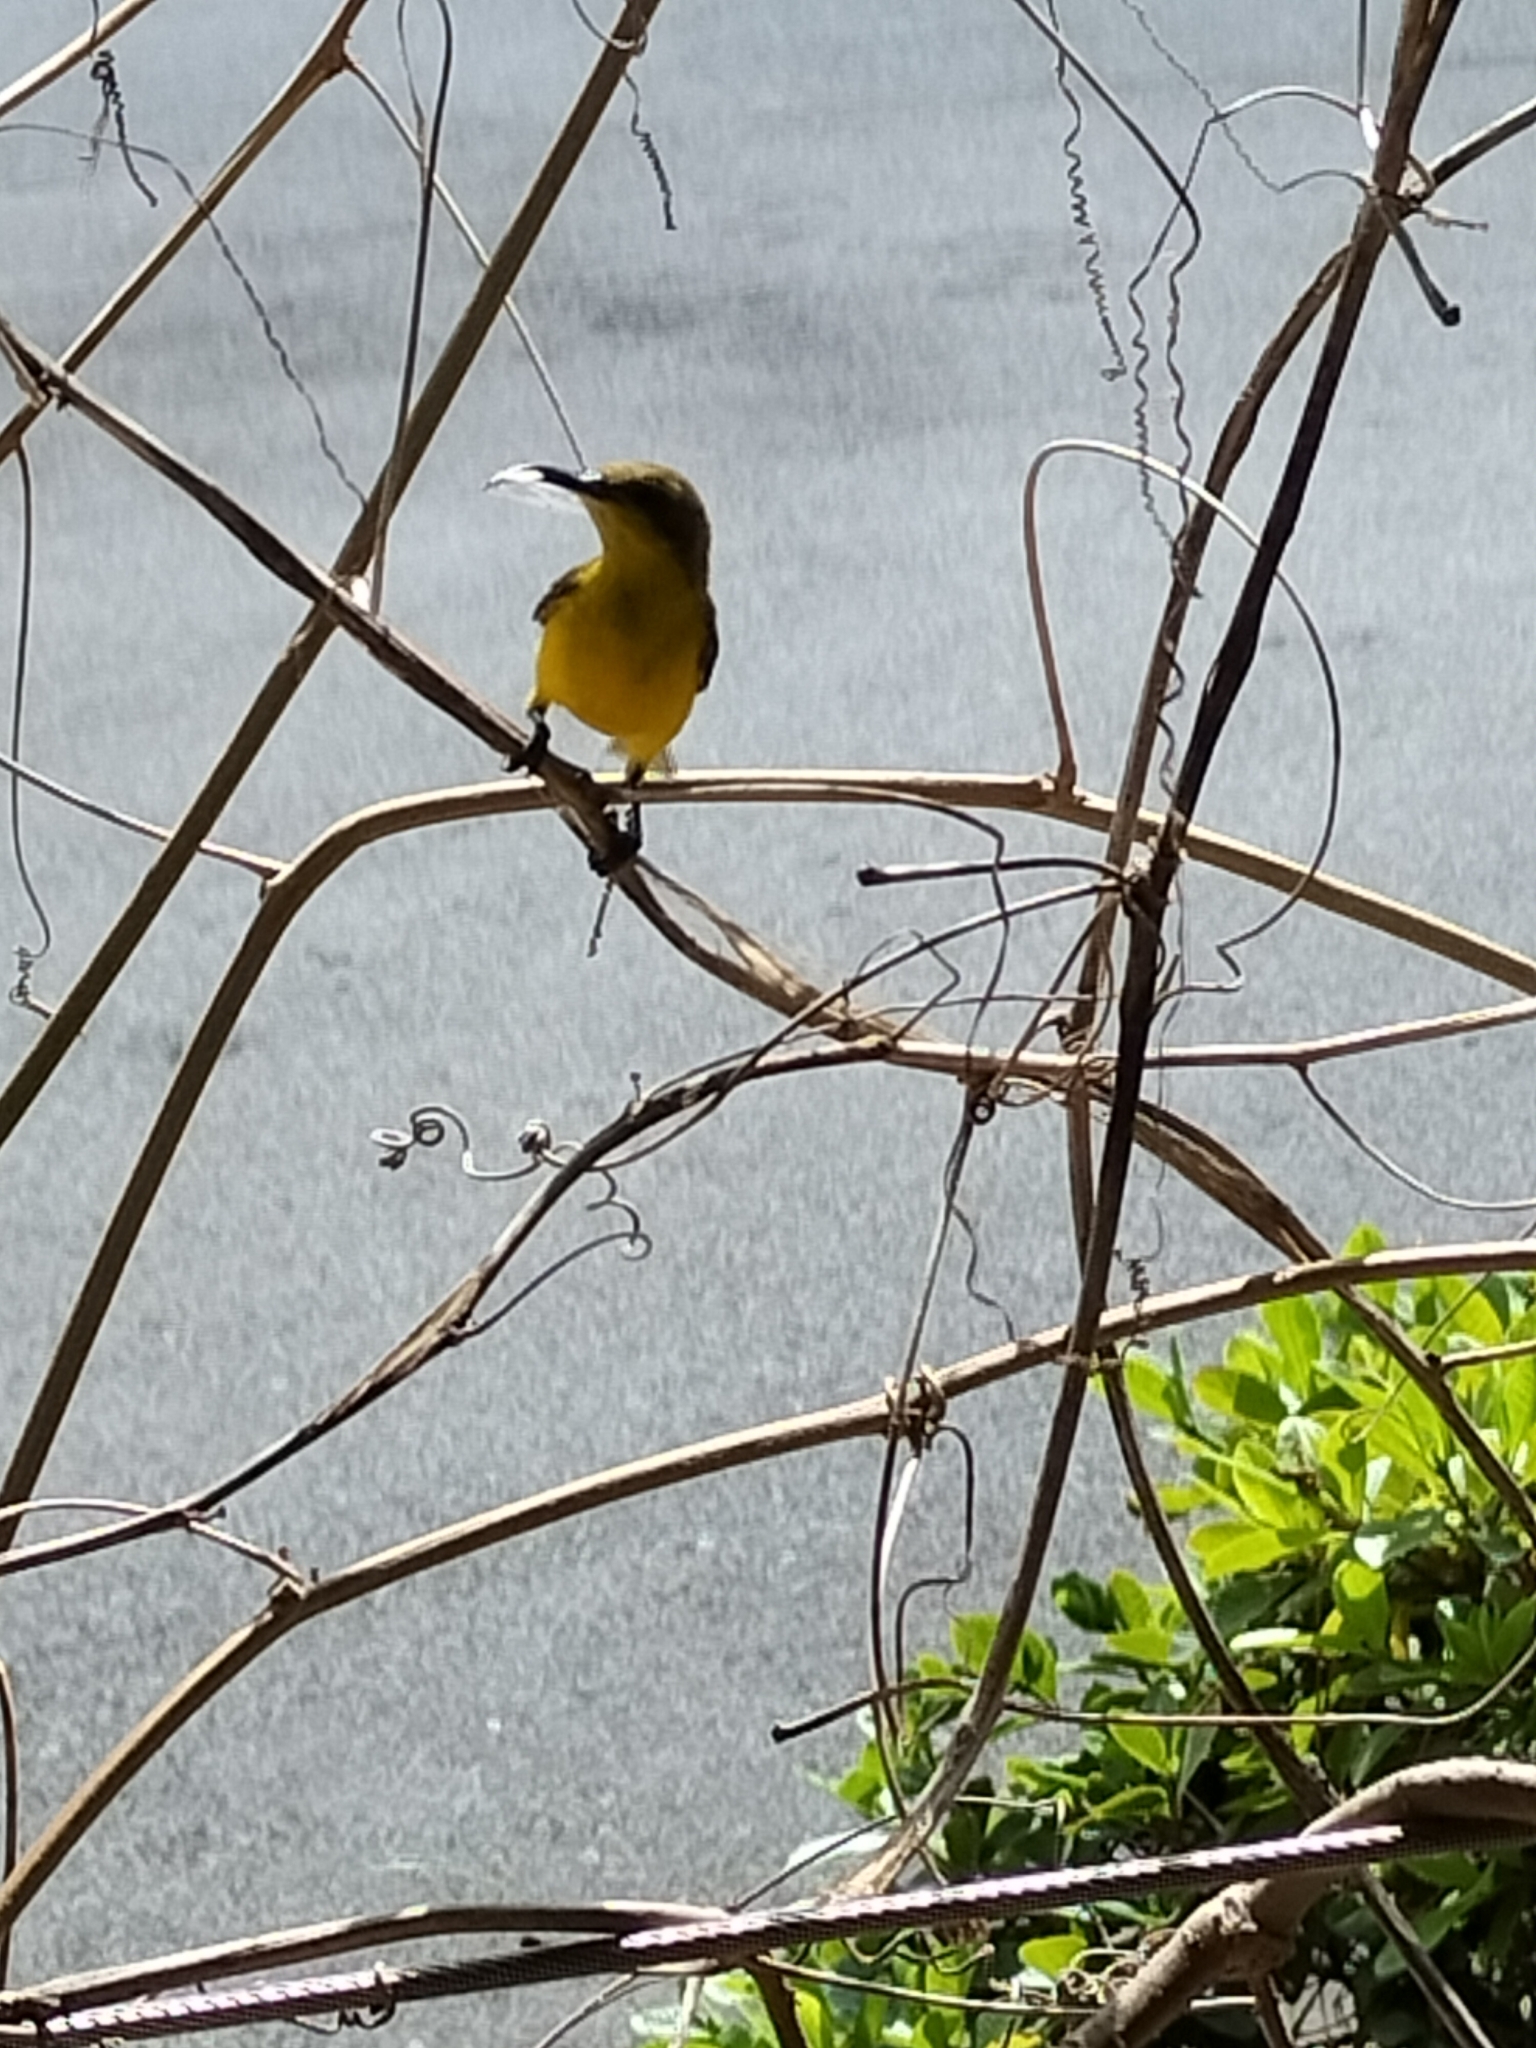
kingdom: Animalia
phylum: Chordata
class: Aves
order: Passeriformes
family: Nectariniidae
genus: Cinnyris
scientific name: Cinnyris
